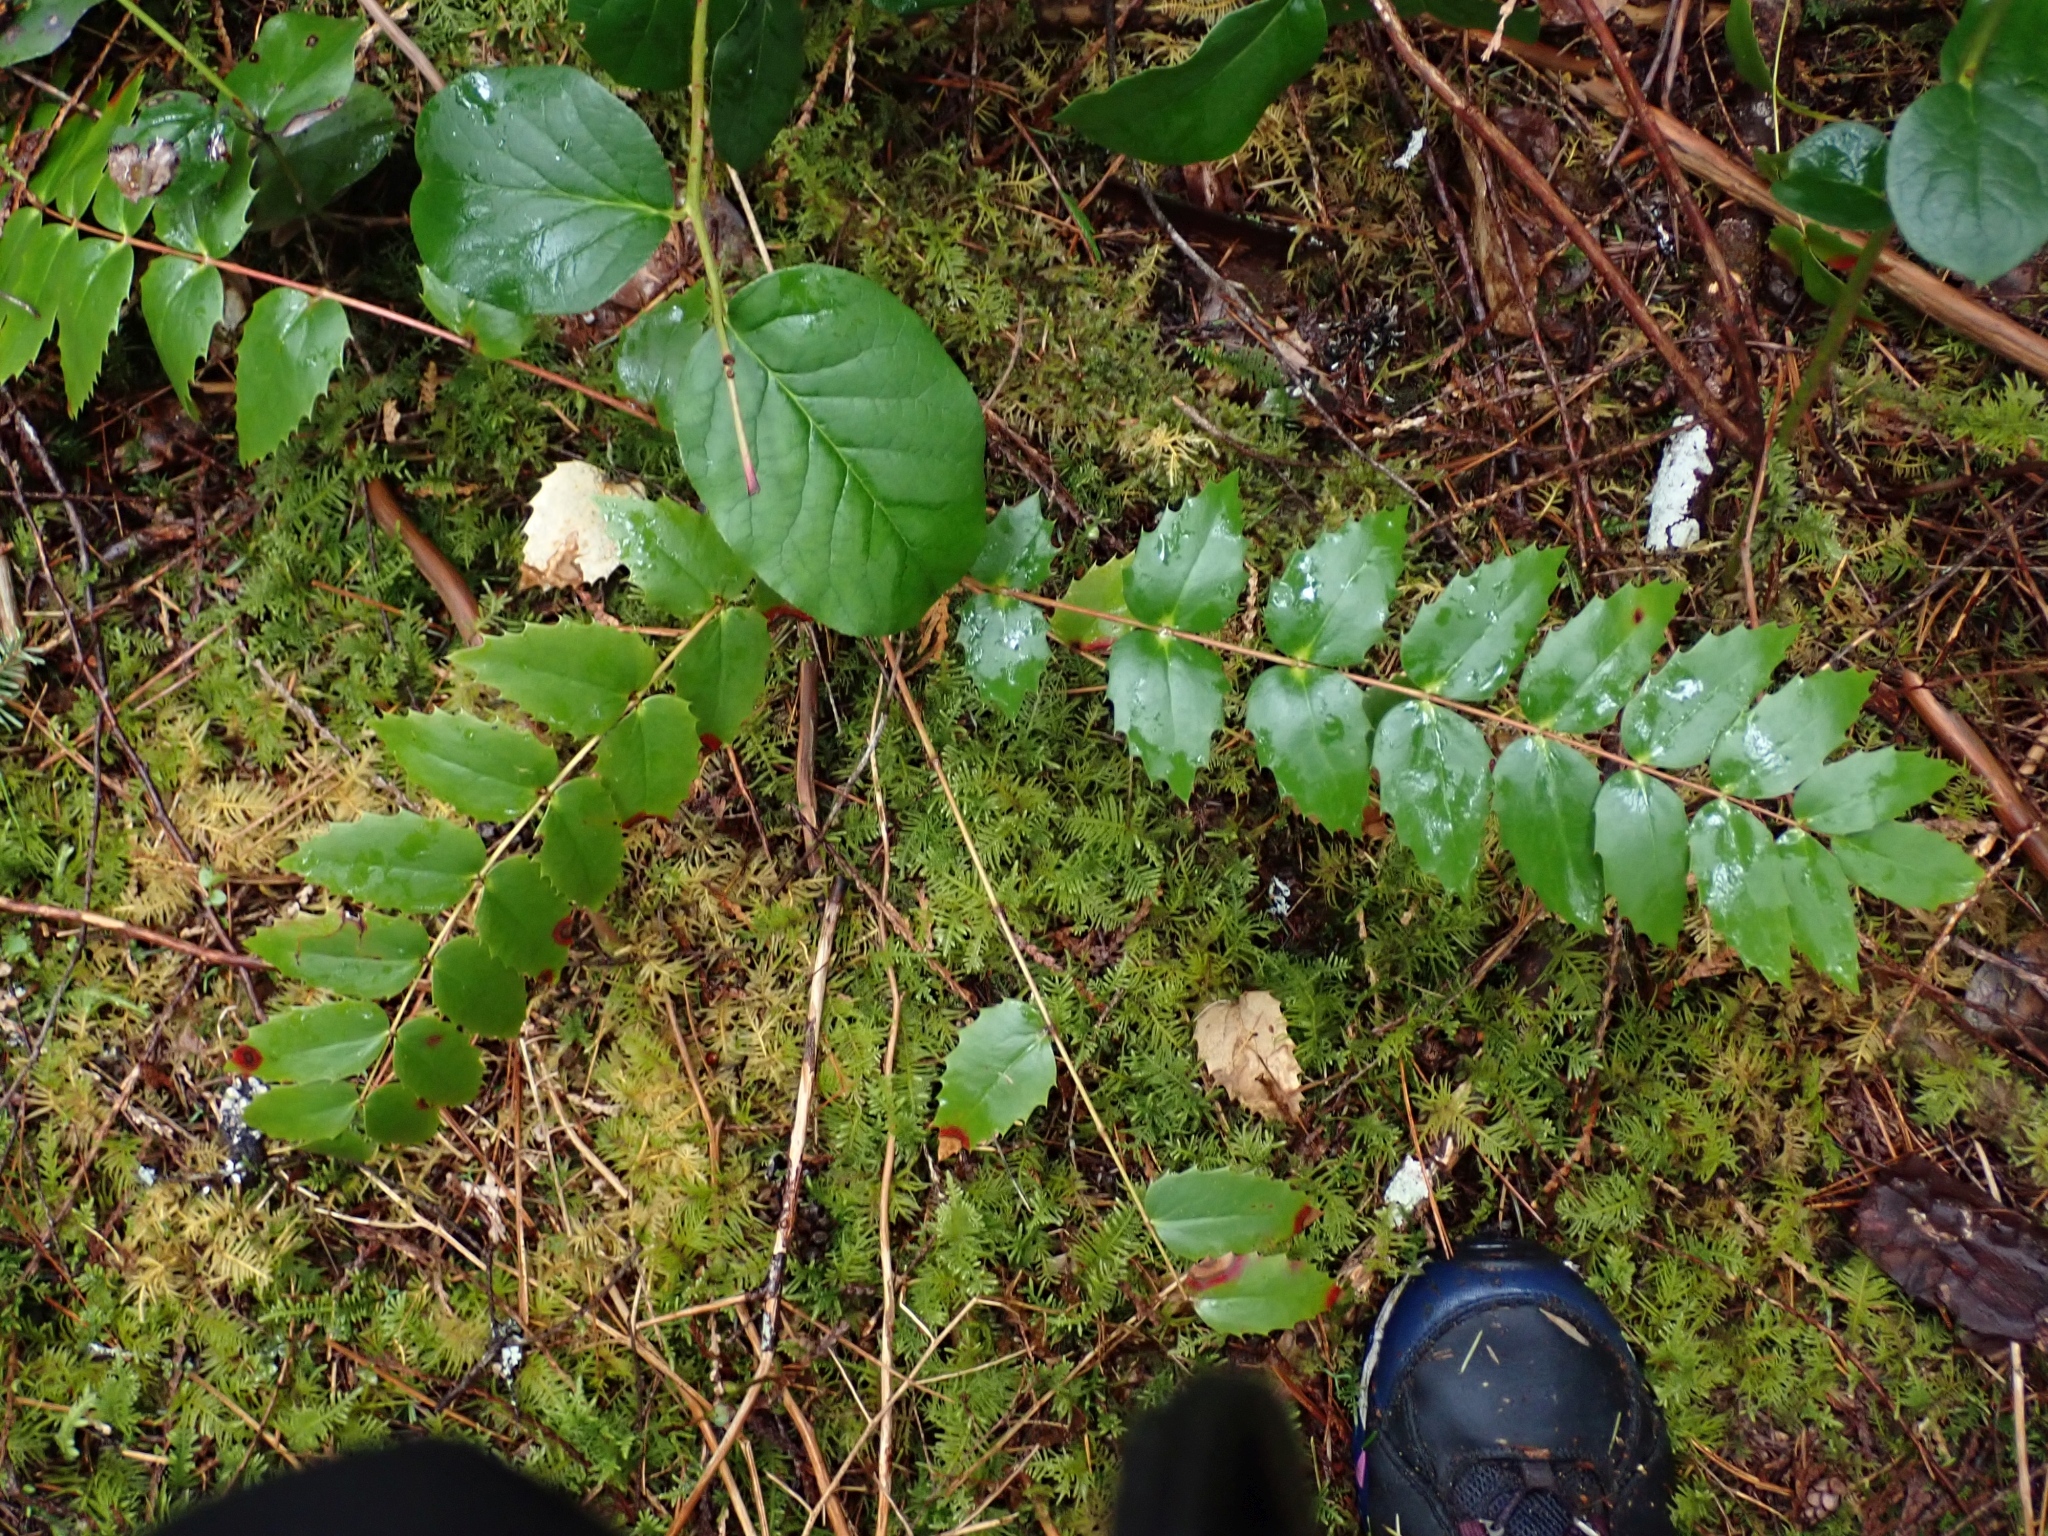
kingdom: Plantae
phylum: Tracheophyta
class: Magnoliopsida
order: Ranunculales
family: Berberidaceae
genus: Mahonia
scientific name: Mahonia nervosa
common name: Cascade oregon-grape
